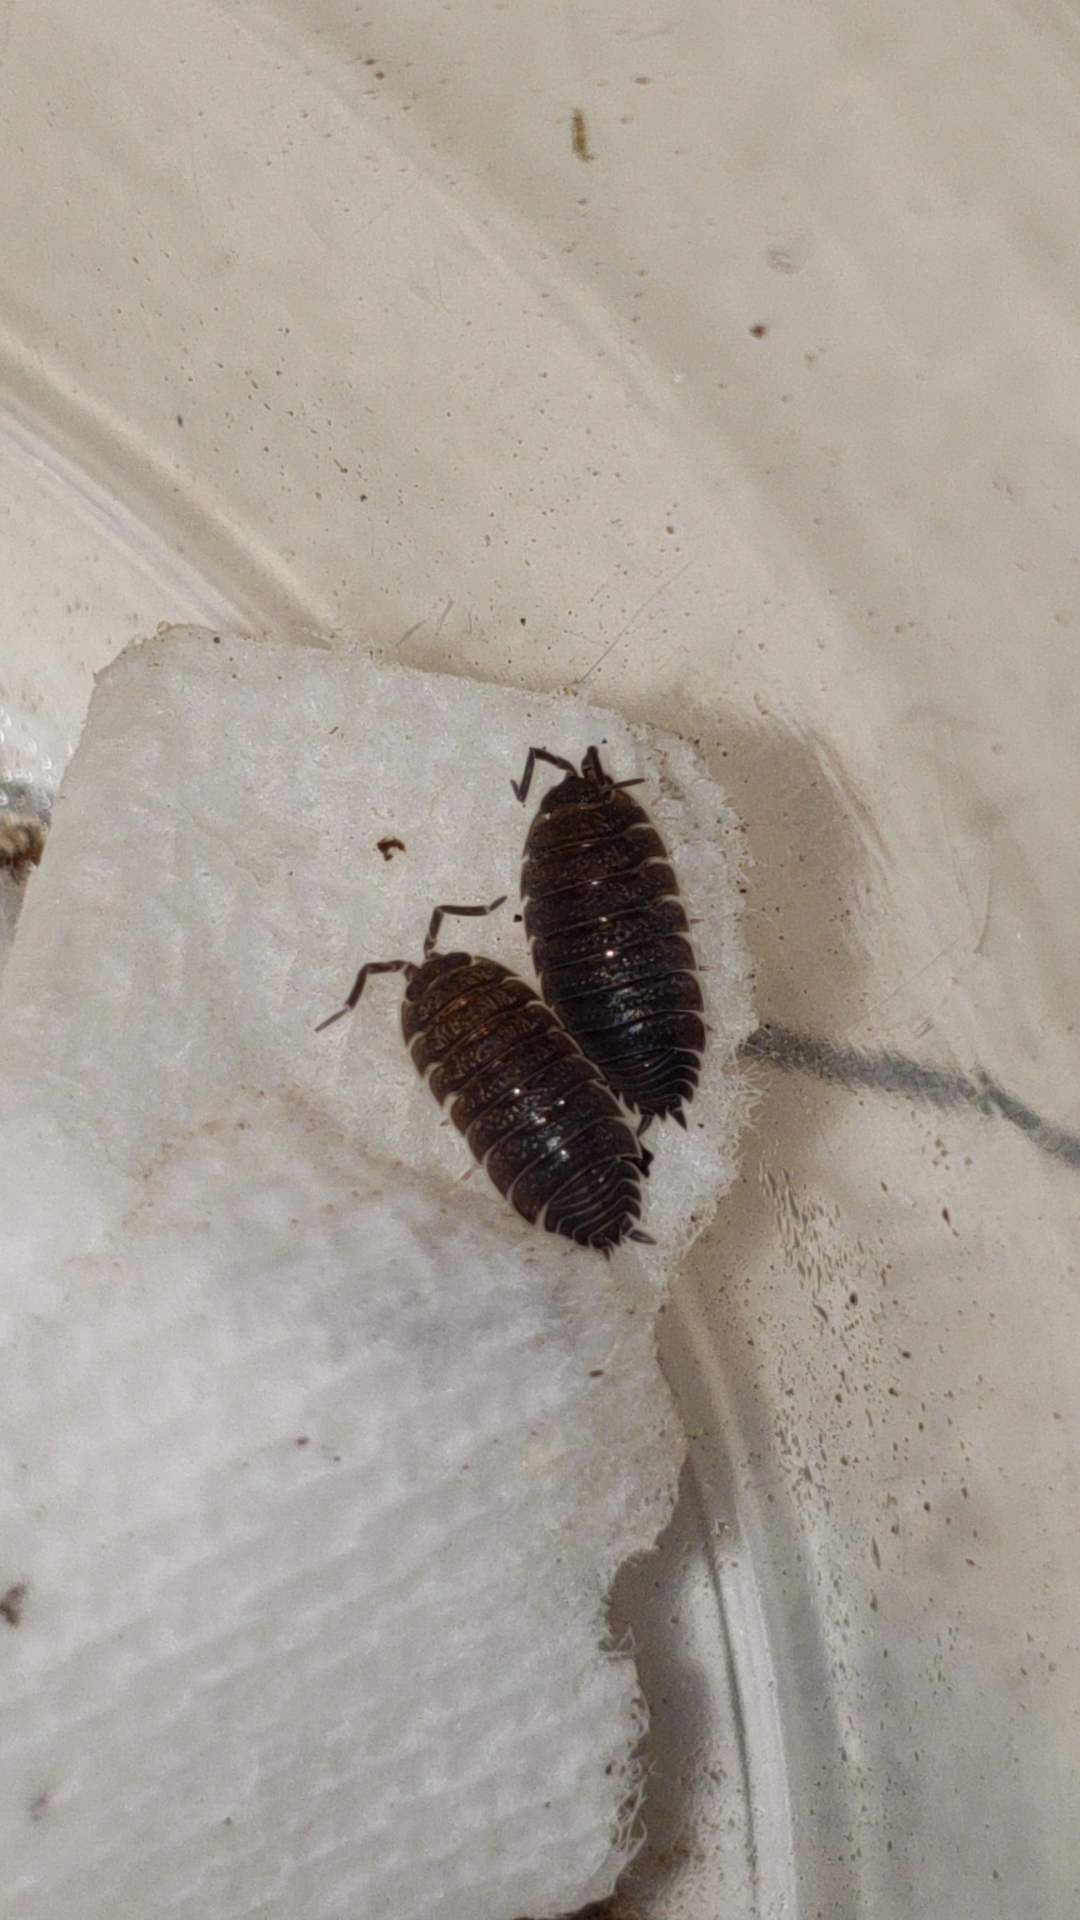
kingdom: Animalia
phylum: Arthropoda
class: Malacostraca
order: Isopoda
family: Porcellionidae
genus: Porcellio
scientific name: Porcellio scaber
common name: Common rough woodlouse
